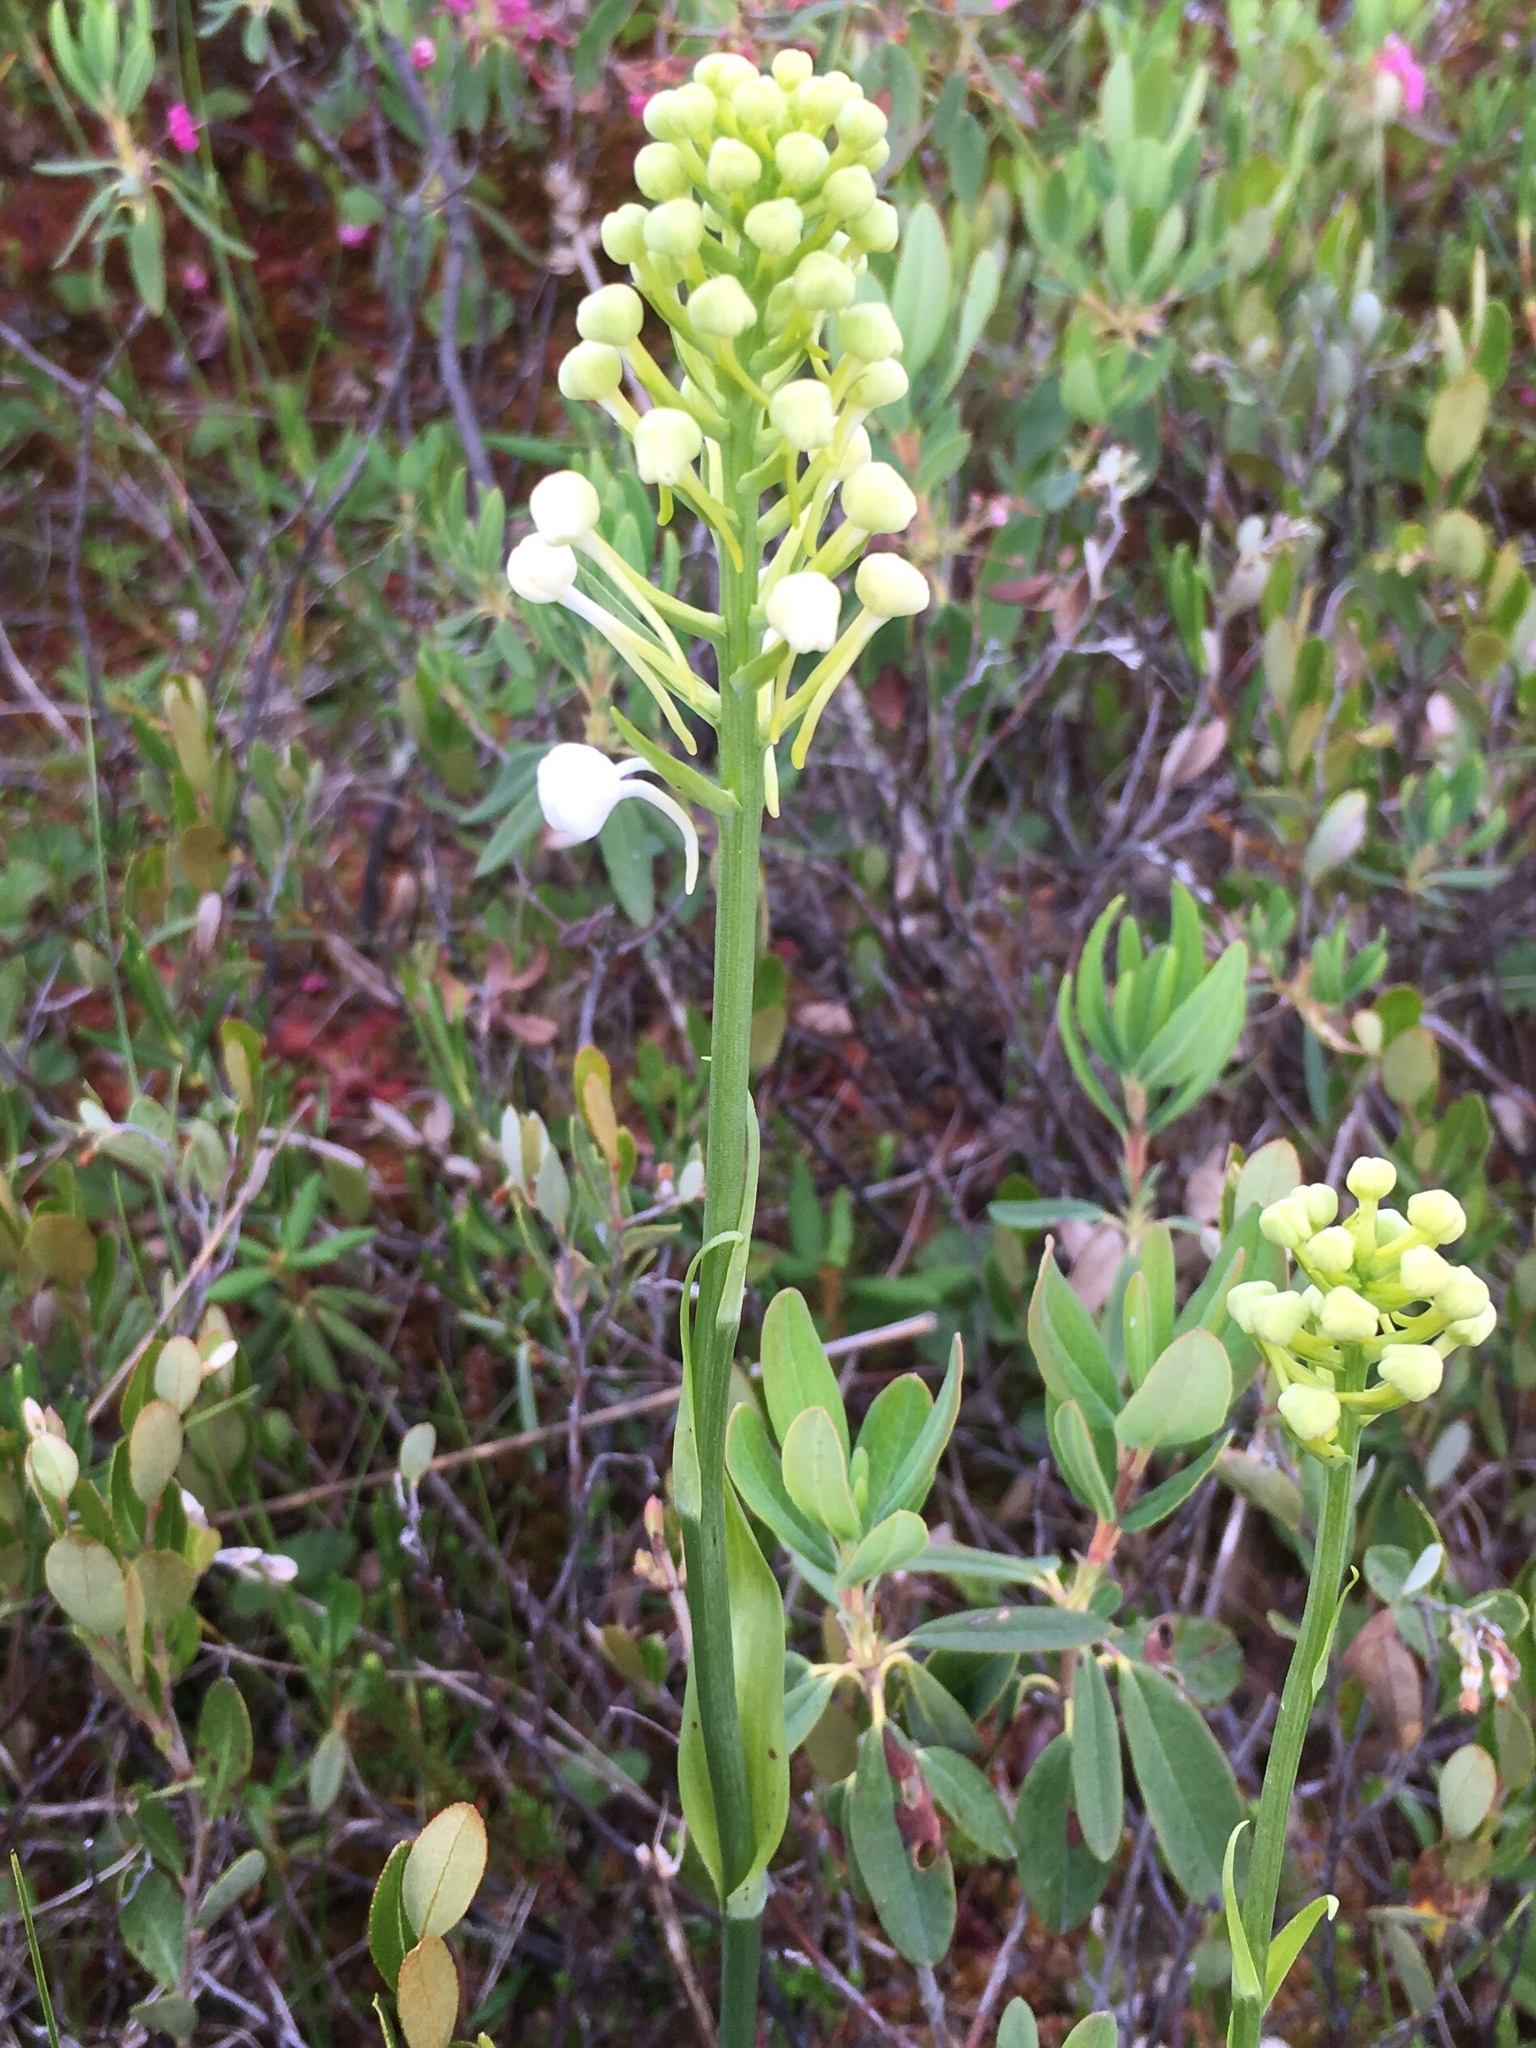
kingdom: Plantae
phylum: Tracheophyta
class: Liliopsida
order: Asparagales
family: Orchidaceae
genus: Platanthera
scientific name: Platanthera blephariglottis
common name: White fringed orchid
